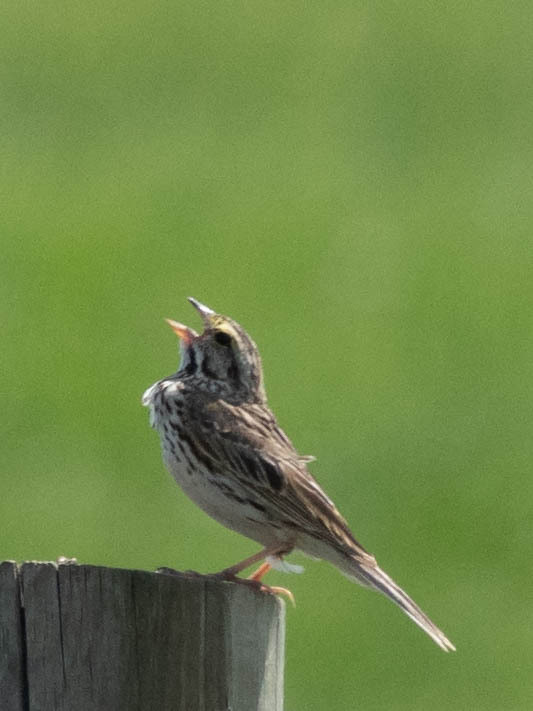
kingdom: Animalia
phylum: Chordata
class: Aves
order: Passeriformes
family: Passerellidae
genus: Passerculus
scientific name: Passerculus sandwichensis
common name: Savannah sparrow
